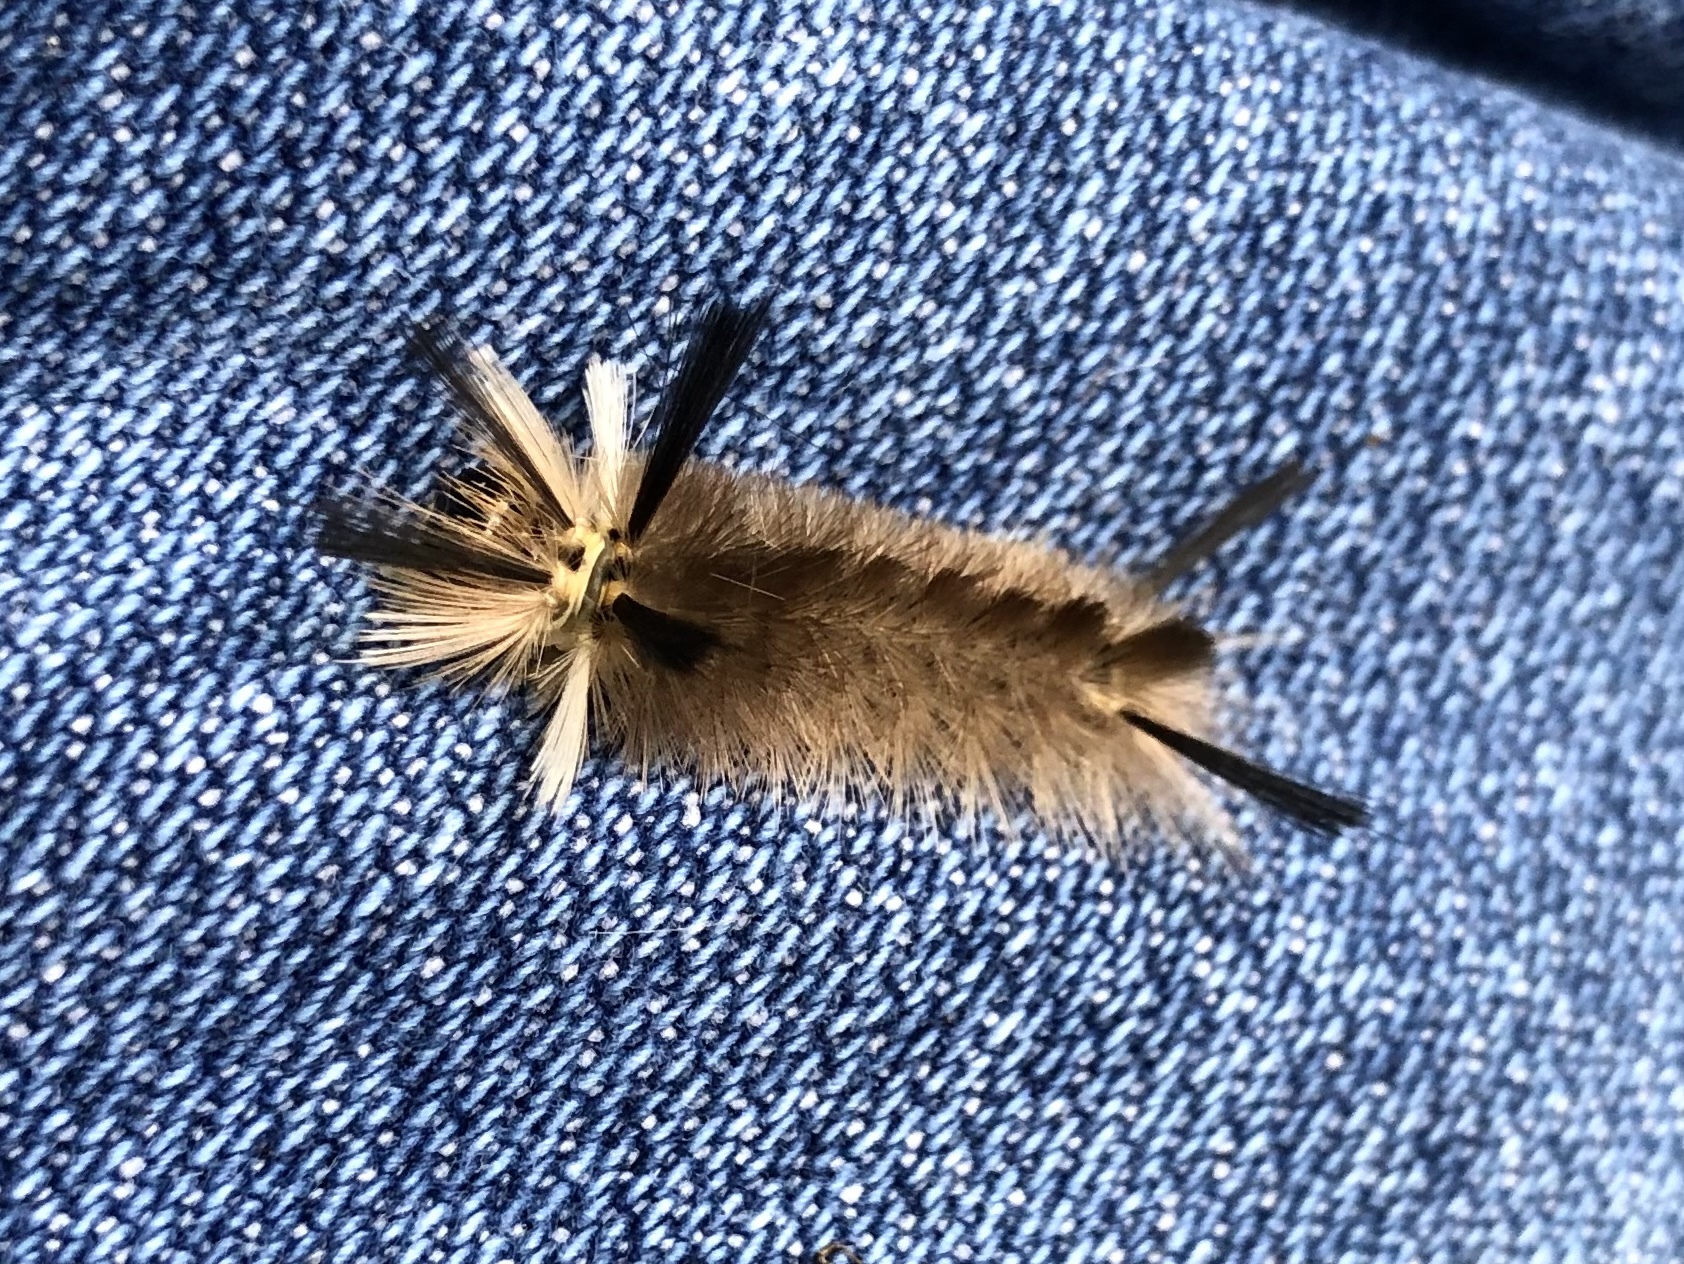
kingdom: Animalia
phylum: Arthropoda
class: Insecta
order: Lepidoptera
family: Erebidae
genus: Halysidota
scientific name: Halysidota tessellaris
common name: Banded tussock moth
